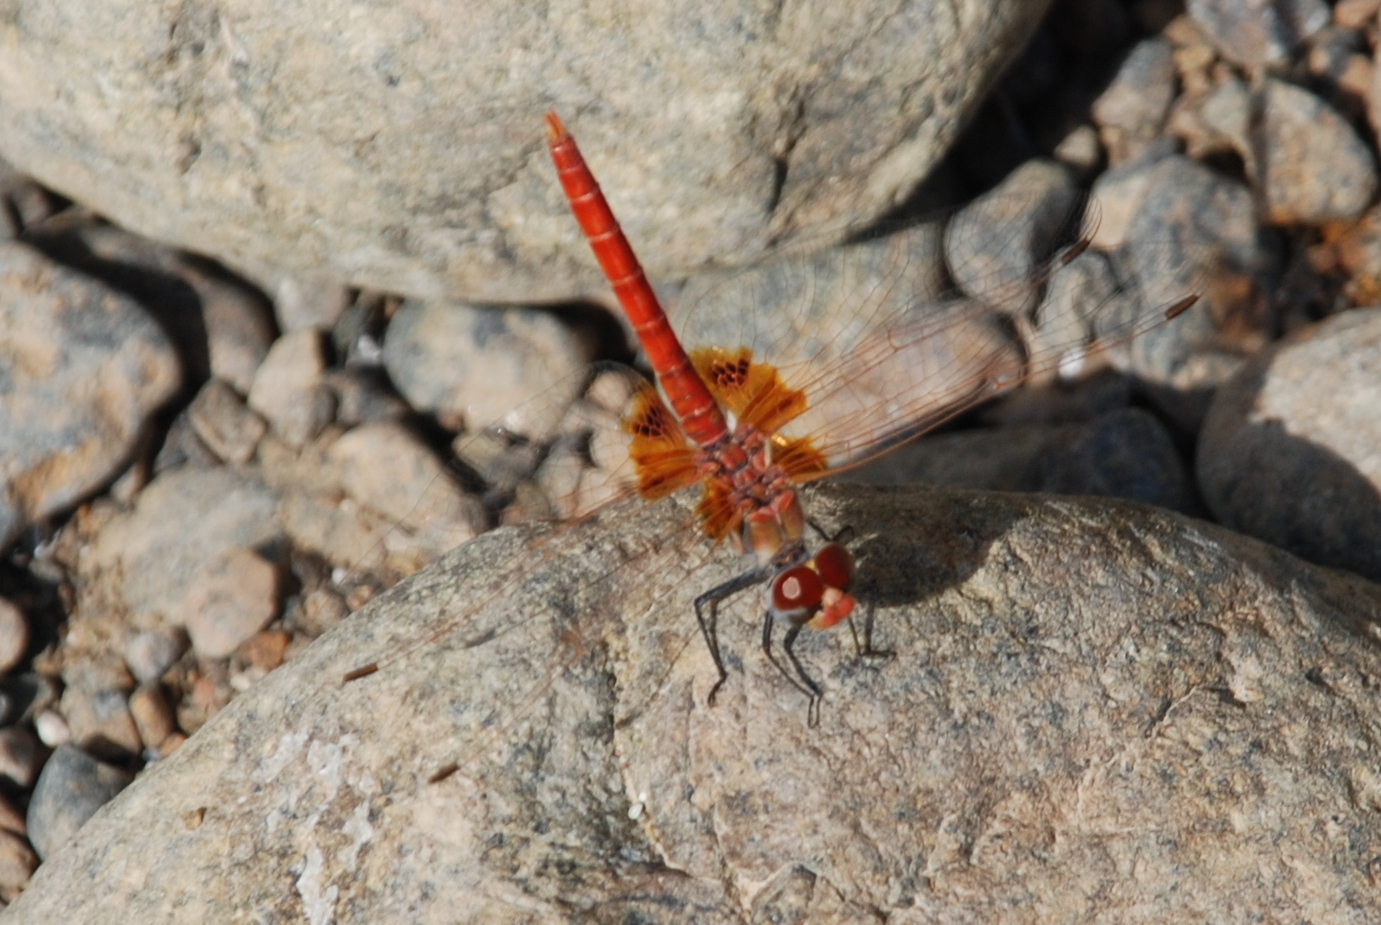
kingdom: Animalia
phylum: Arthropoda
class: Insecta
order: Odonata
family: Libellulidae
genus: Urothemis
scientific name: Urothemis thomasi
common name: Desert basker
